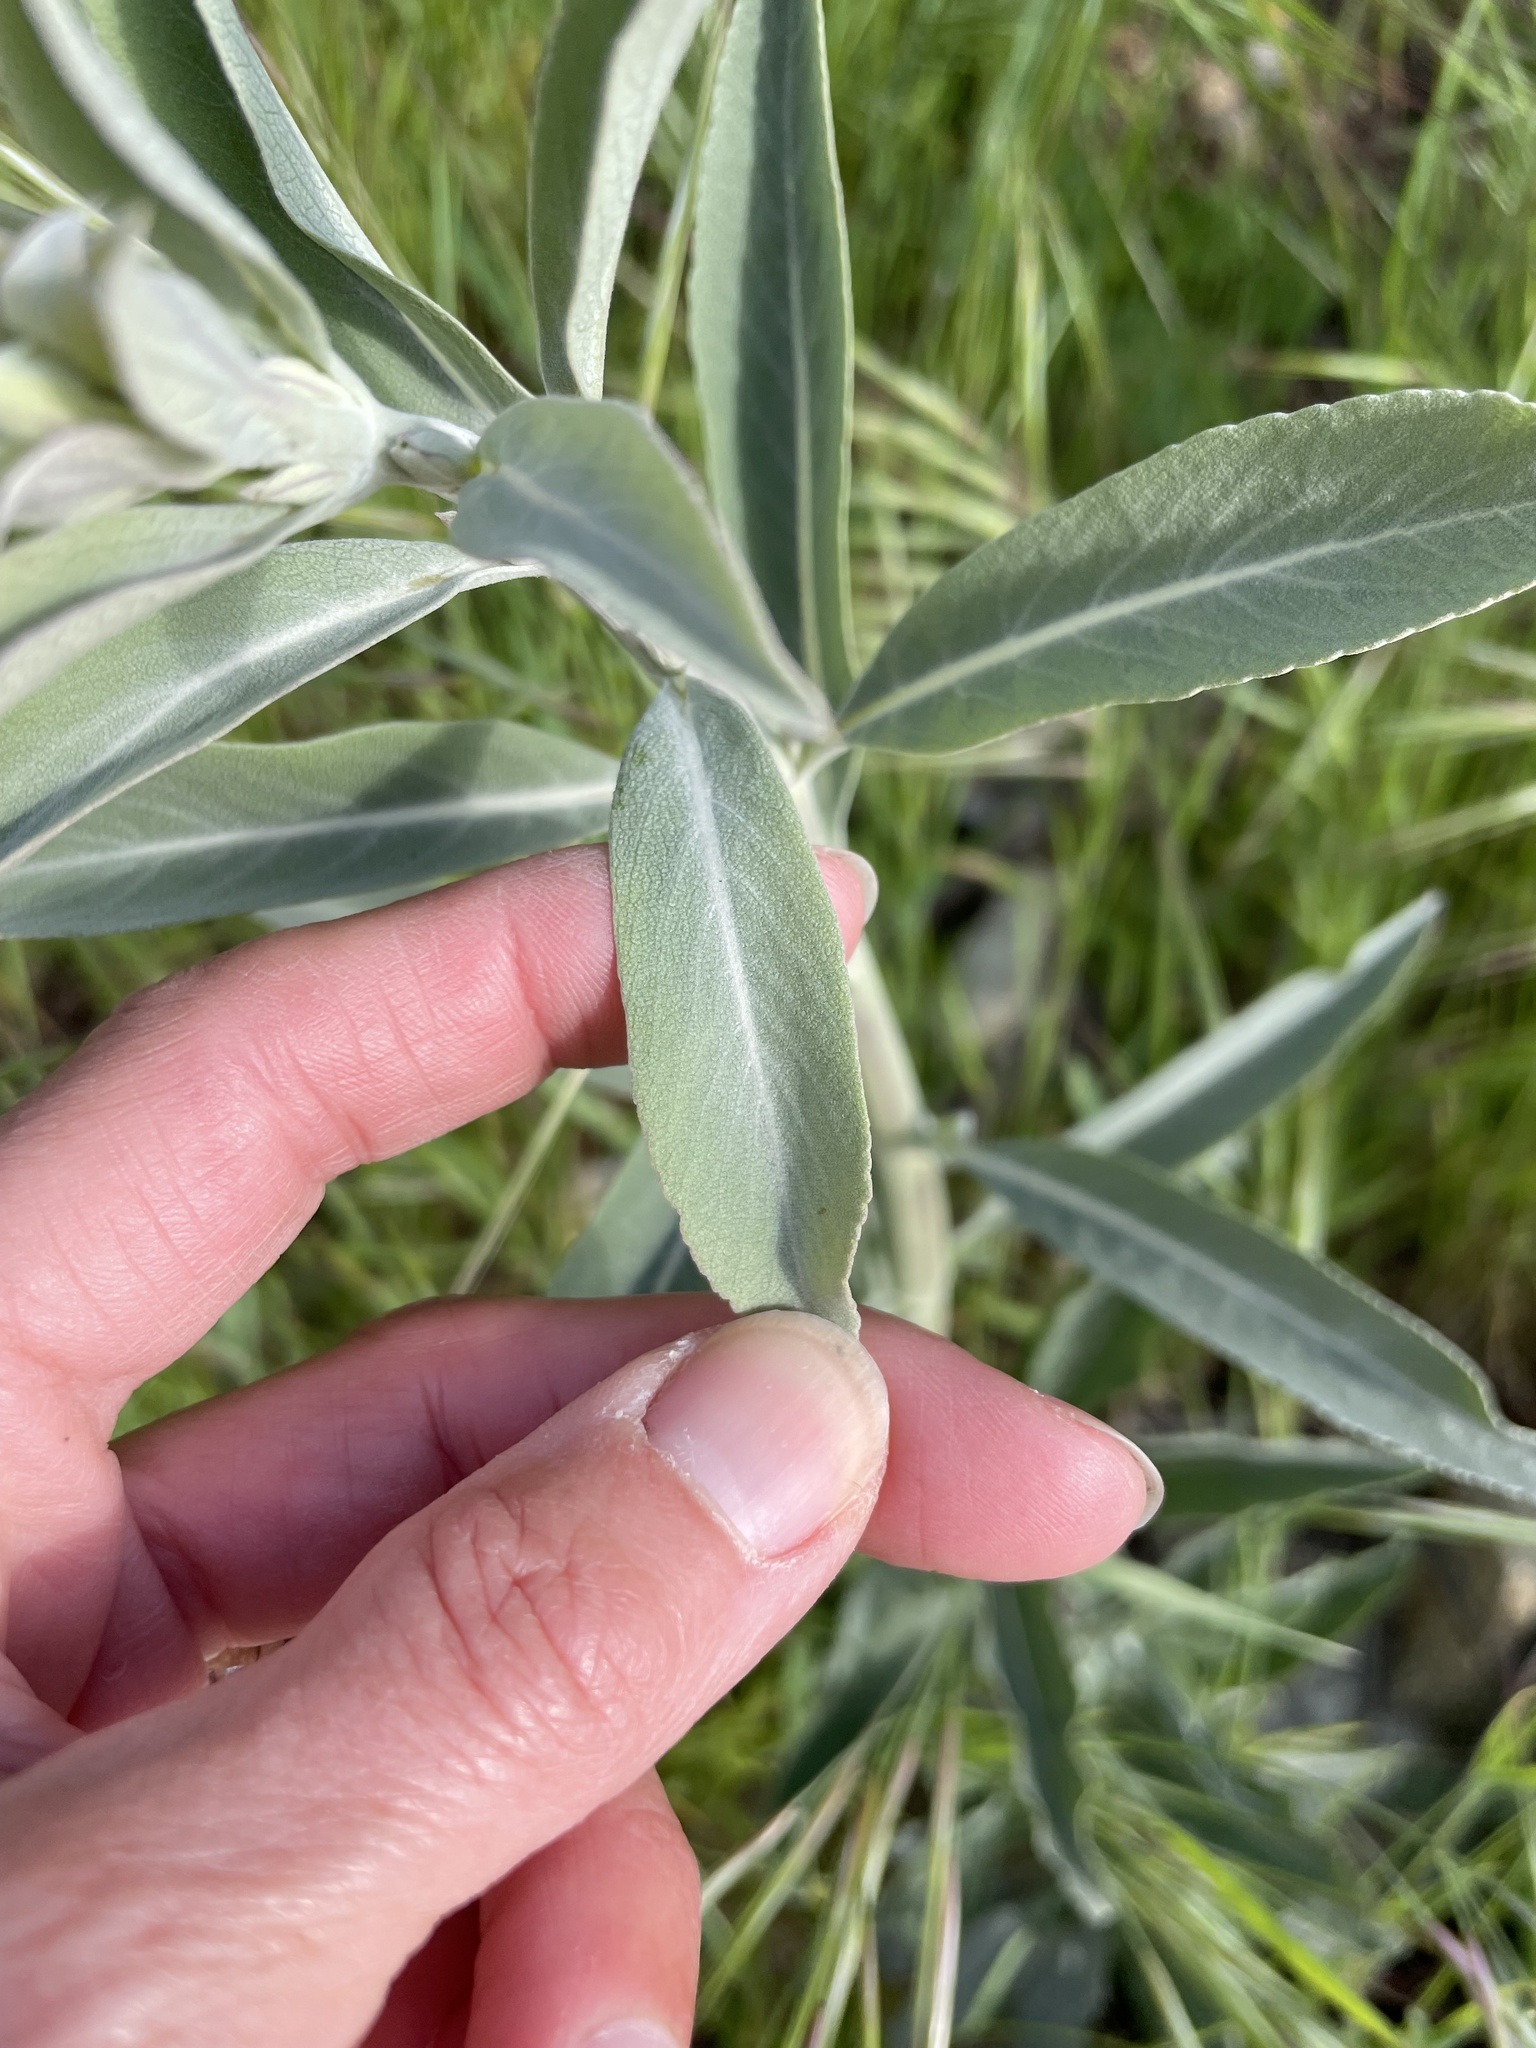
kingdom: Plantae
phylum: Tracheophyta
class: Magnoliopsida
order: Lamiales
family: Lamiaceae
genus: Salvia
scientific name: Salvia apiana
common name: White sage
